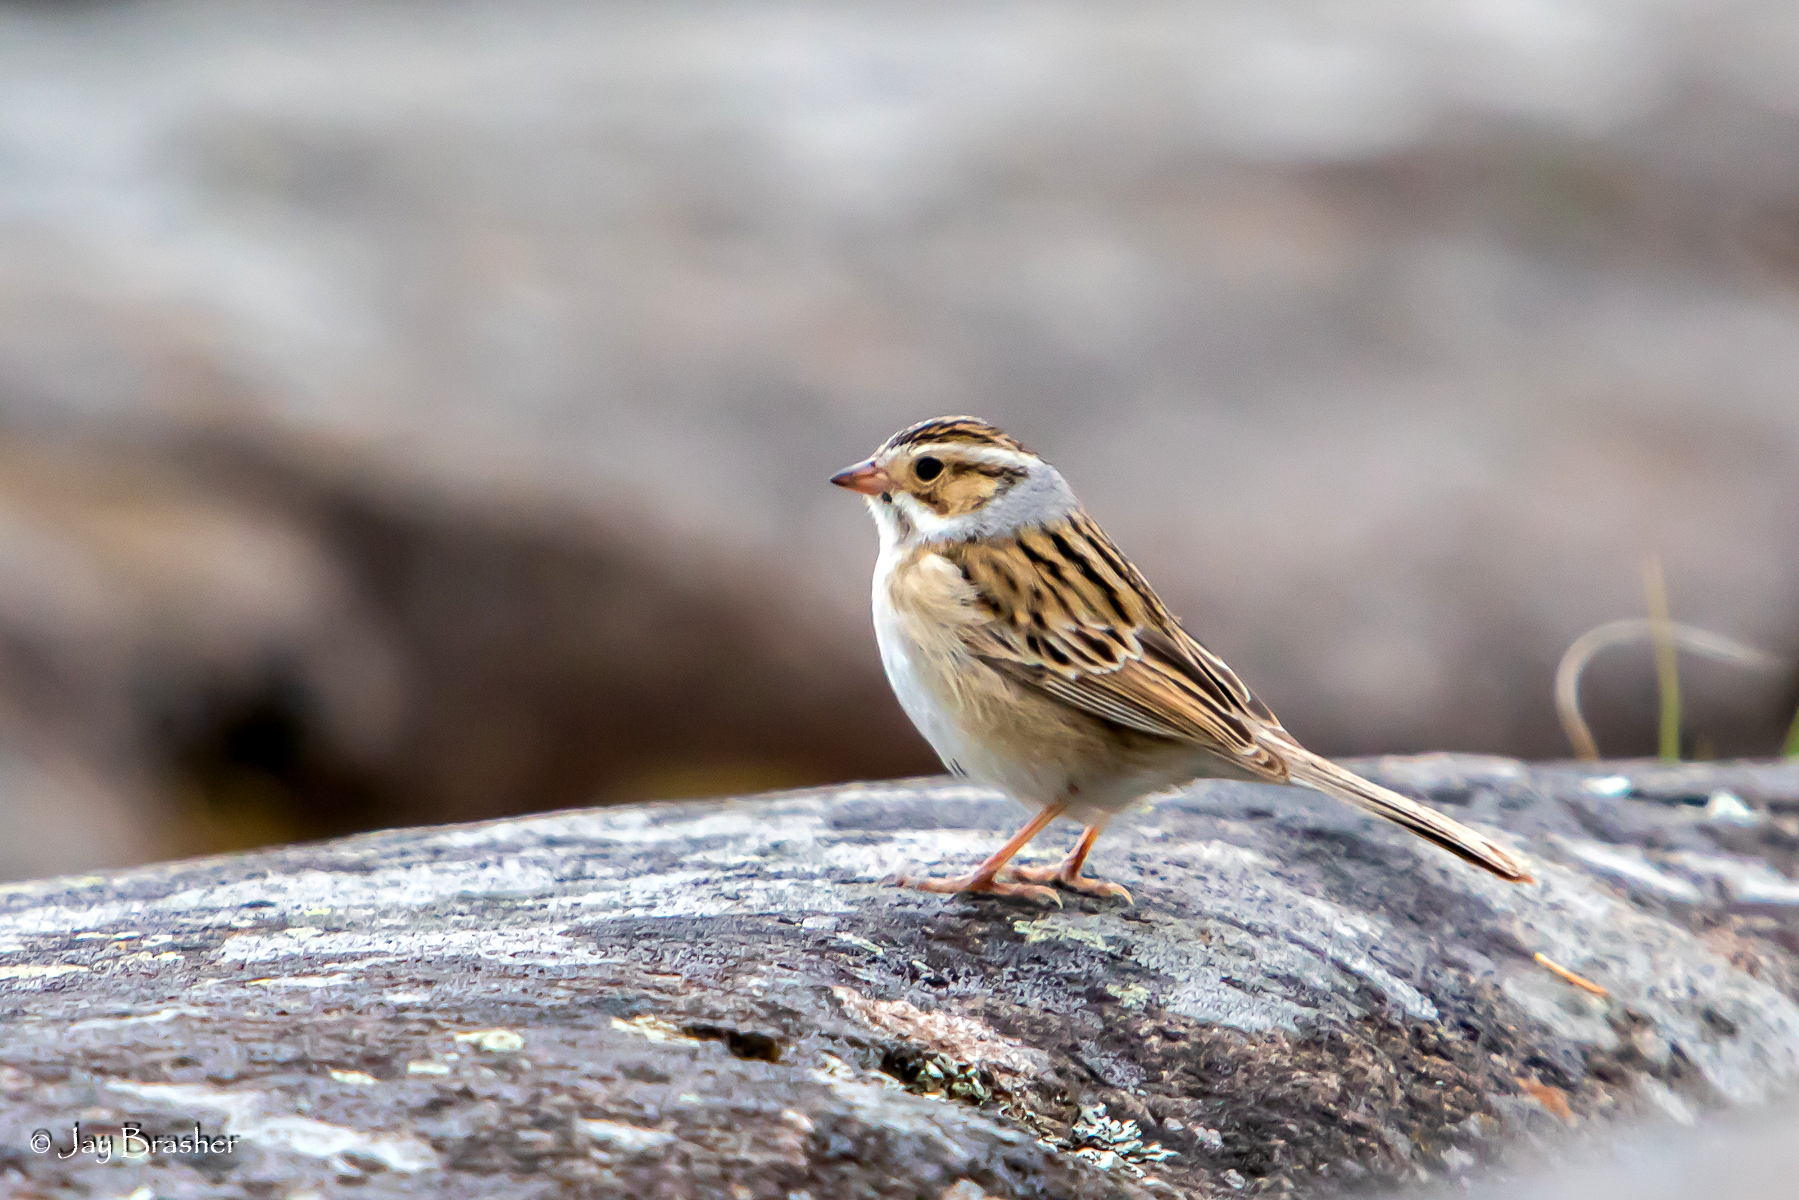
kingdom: Animalia
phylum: Chordata
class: Aves
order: Passeriformes
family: Passerellidae
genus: Spizella
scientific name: Spizella pallida
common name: Clay-colored sparrow
